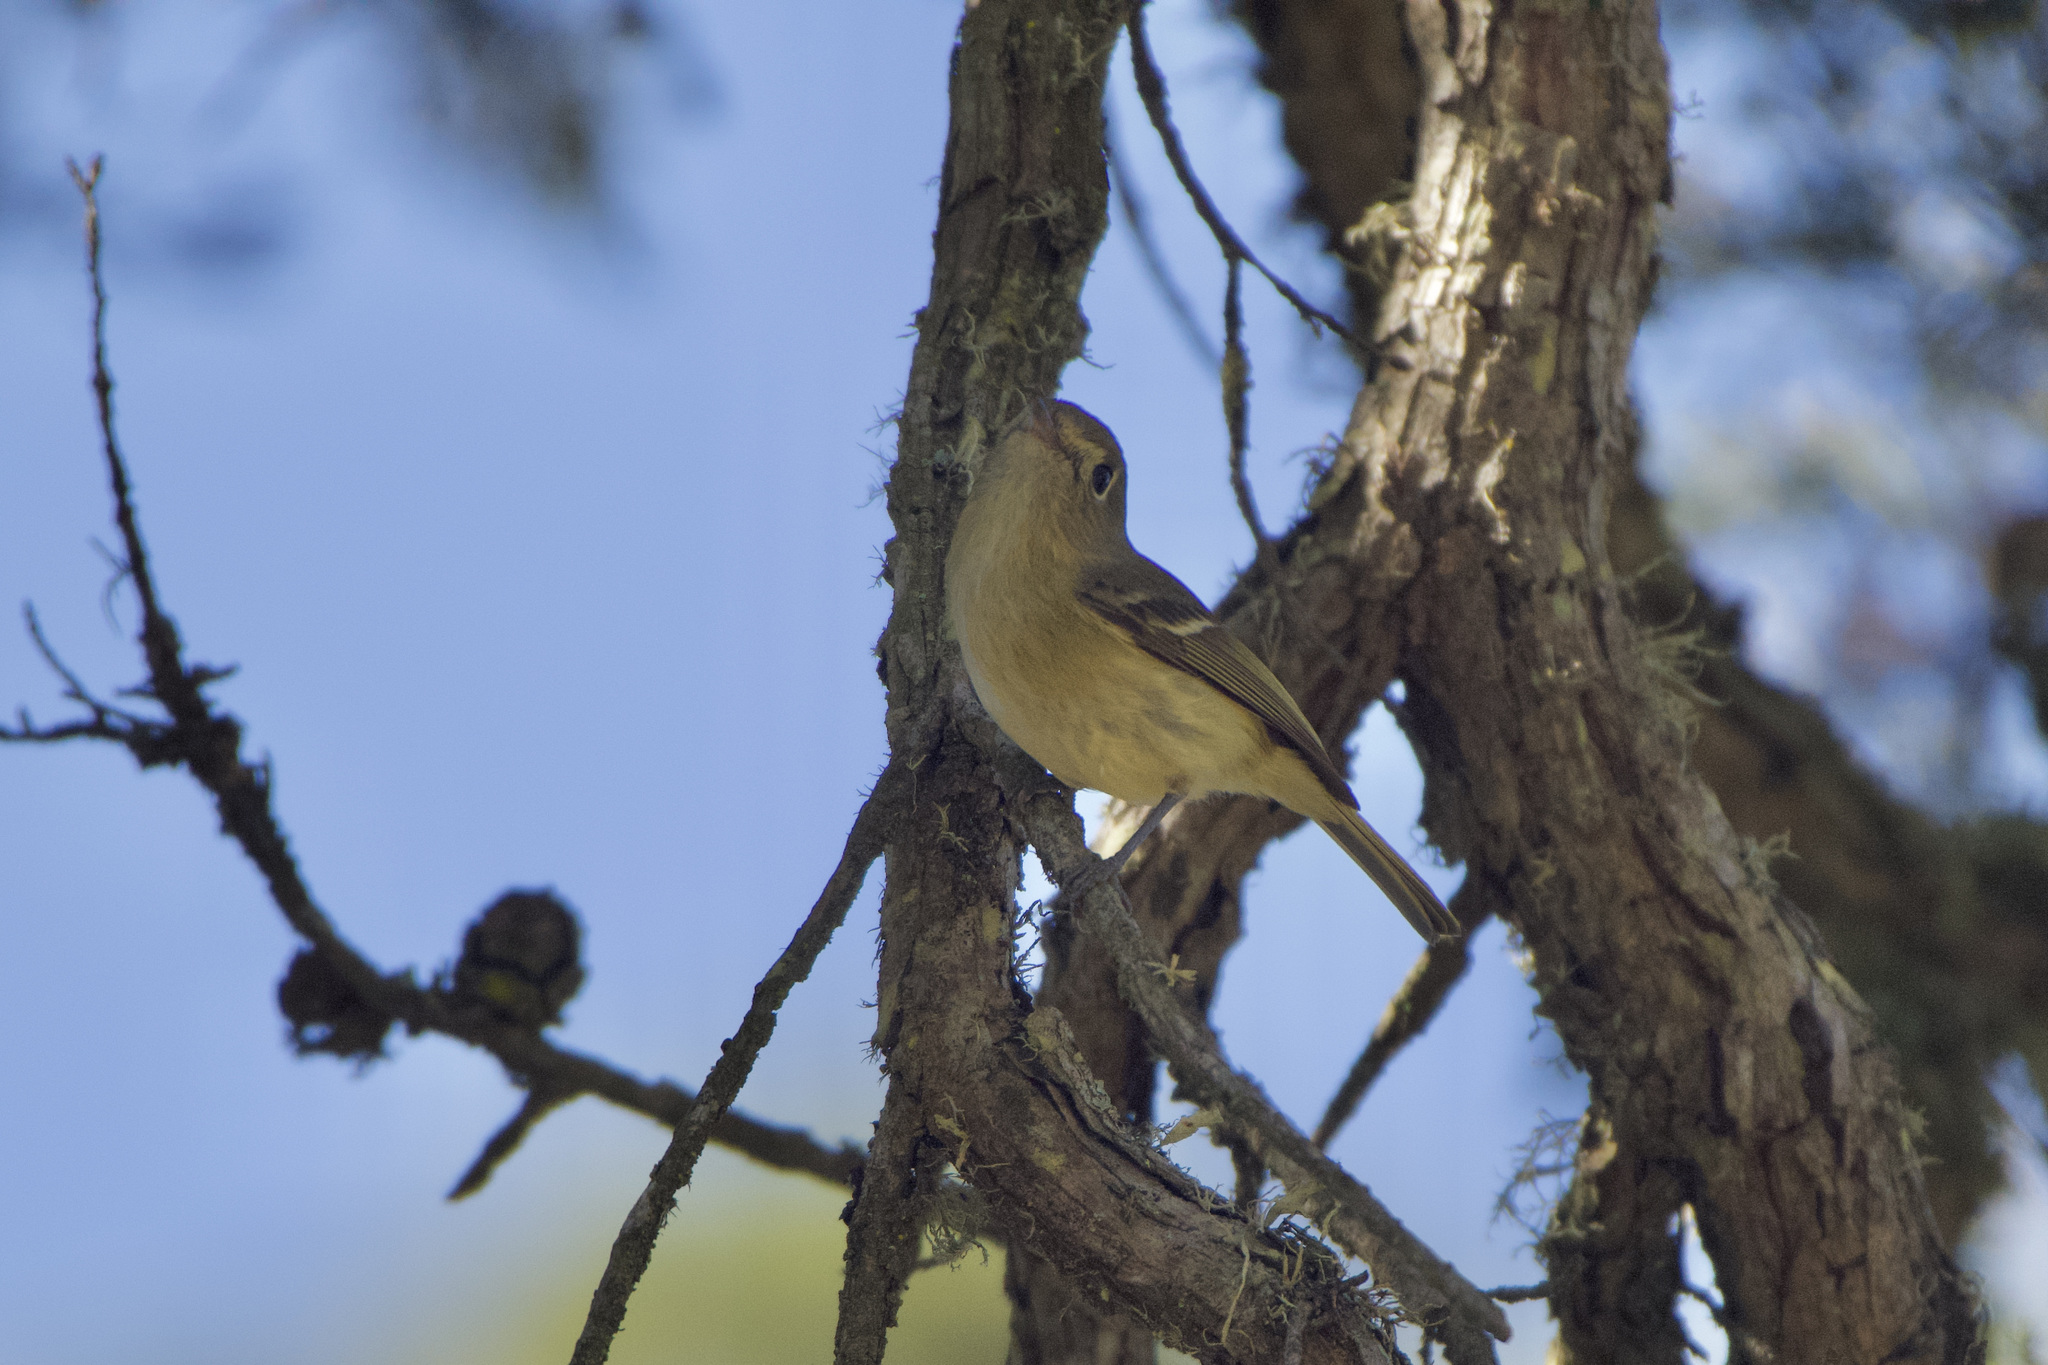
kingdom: Animalia
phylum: Chordata
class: Aves
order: Passeriformes
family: Vireonidae
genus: Vireo
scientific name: Vireo huttoni
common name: Hutton's vireo
